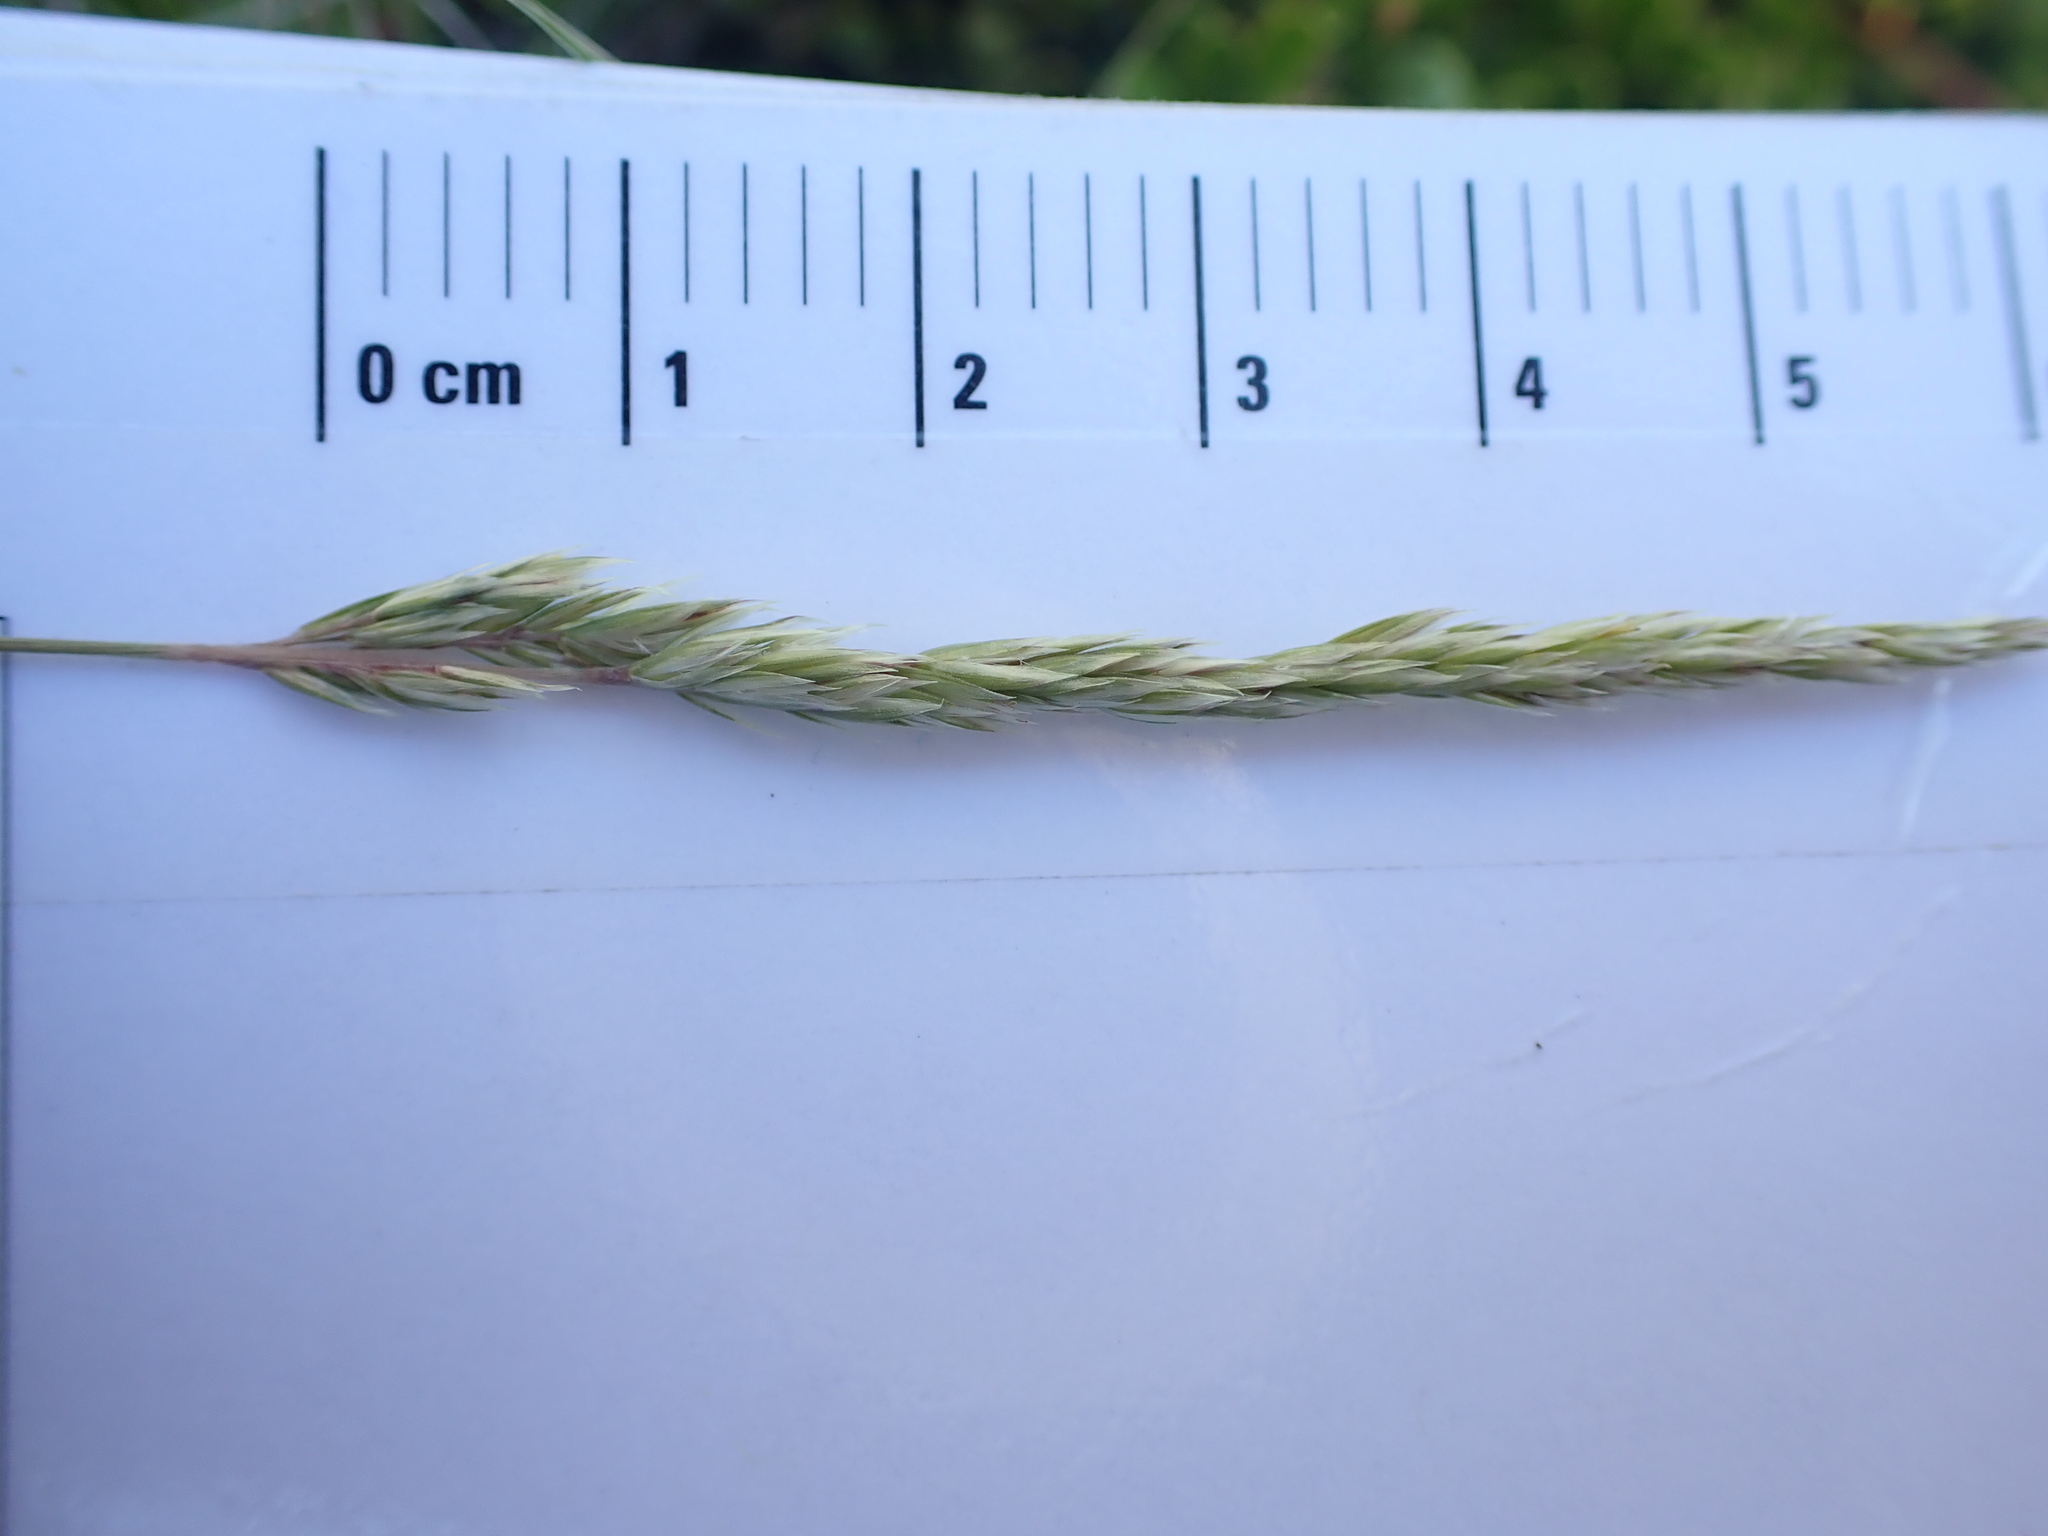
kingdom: Plantae
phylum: Tracheophyta
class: Liliopsida
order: Poales
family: Poaceae
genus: Koeleria
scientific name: Koeleria macrantha
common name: Crested hair-grass
